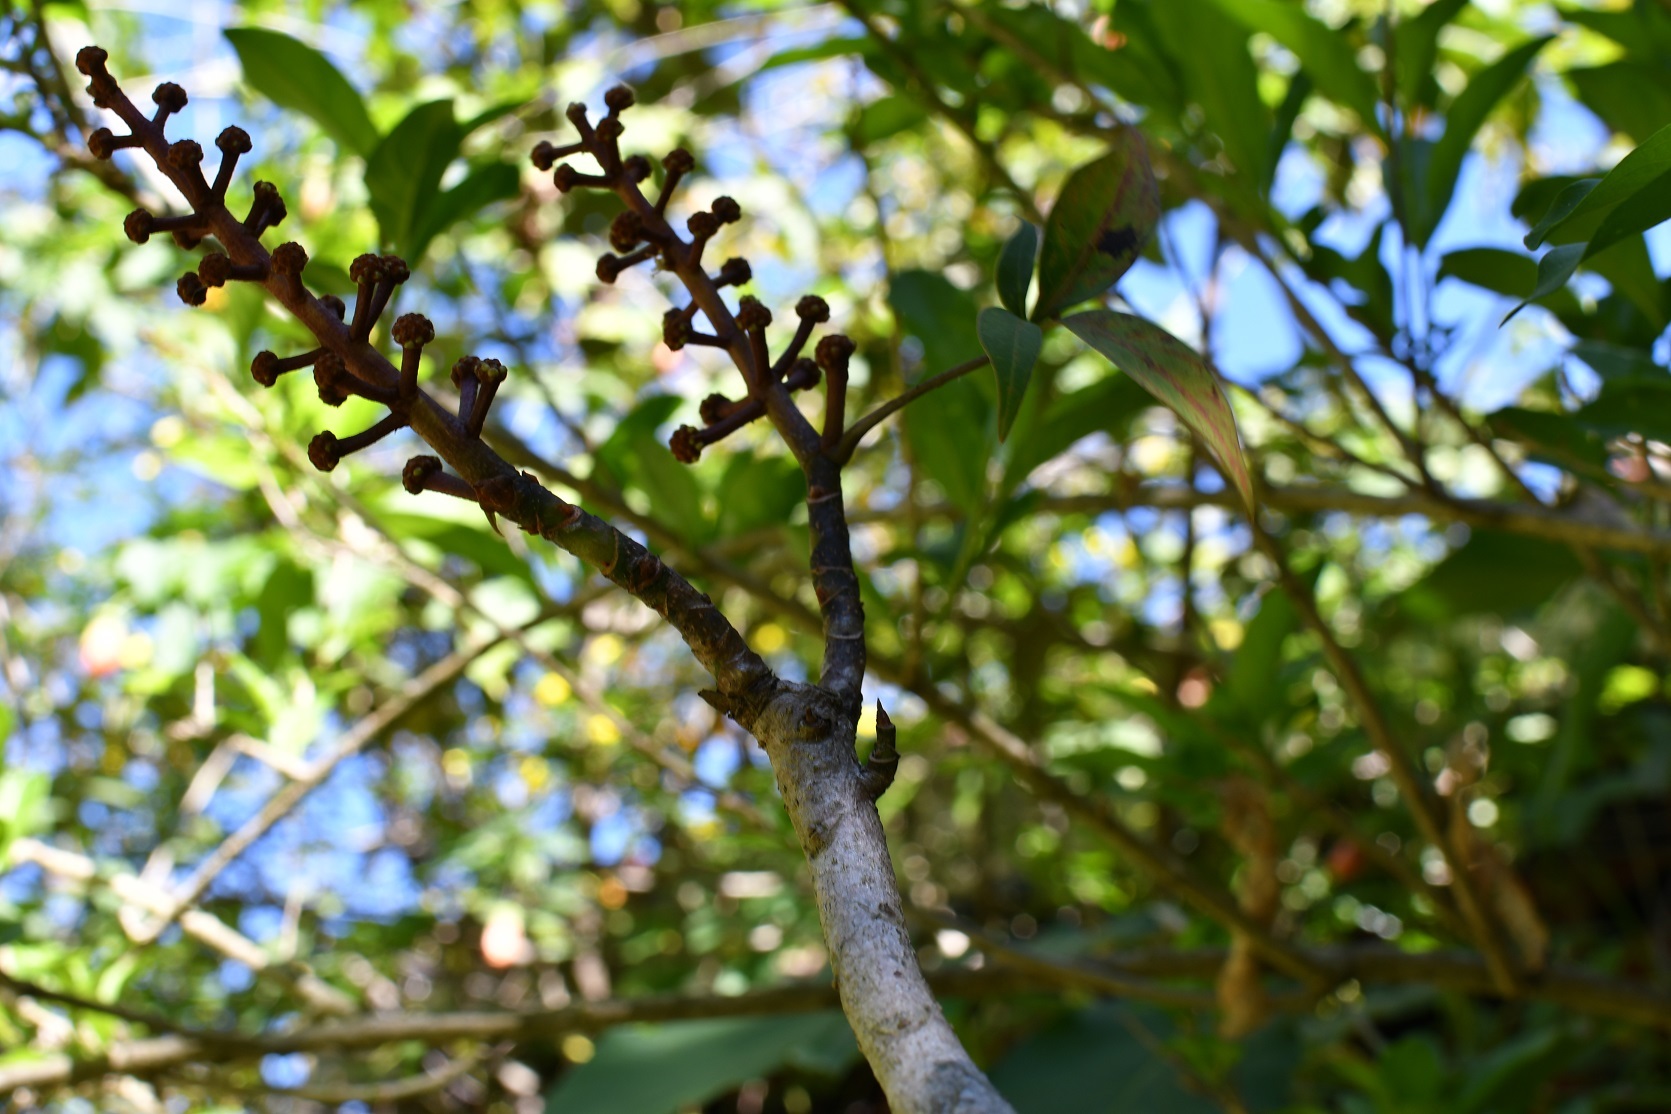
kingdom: Plantae
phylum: Tracheophyta
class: Magnoliopsida
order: Apiales
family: Araliaceae
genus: Oreopanax
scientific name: Oreopanax xalapensis
